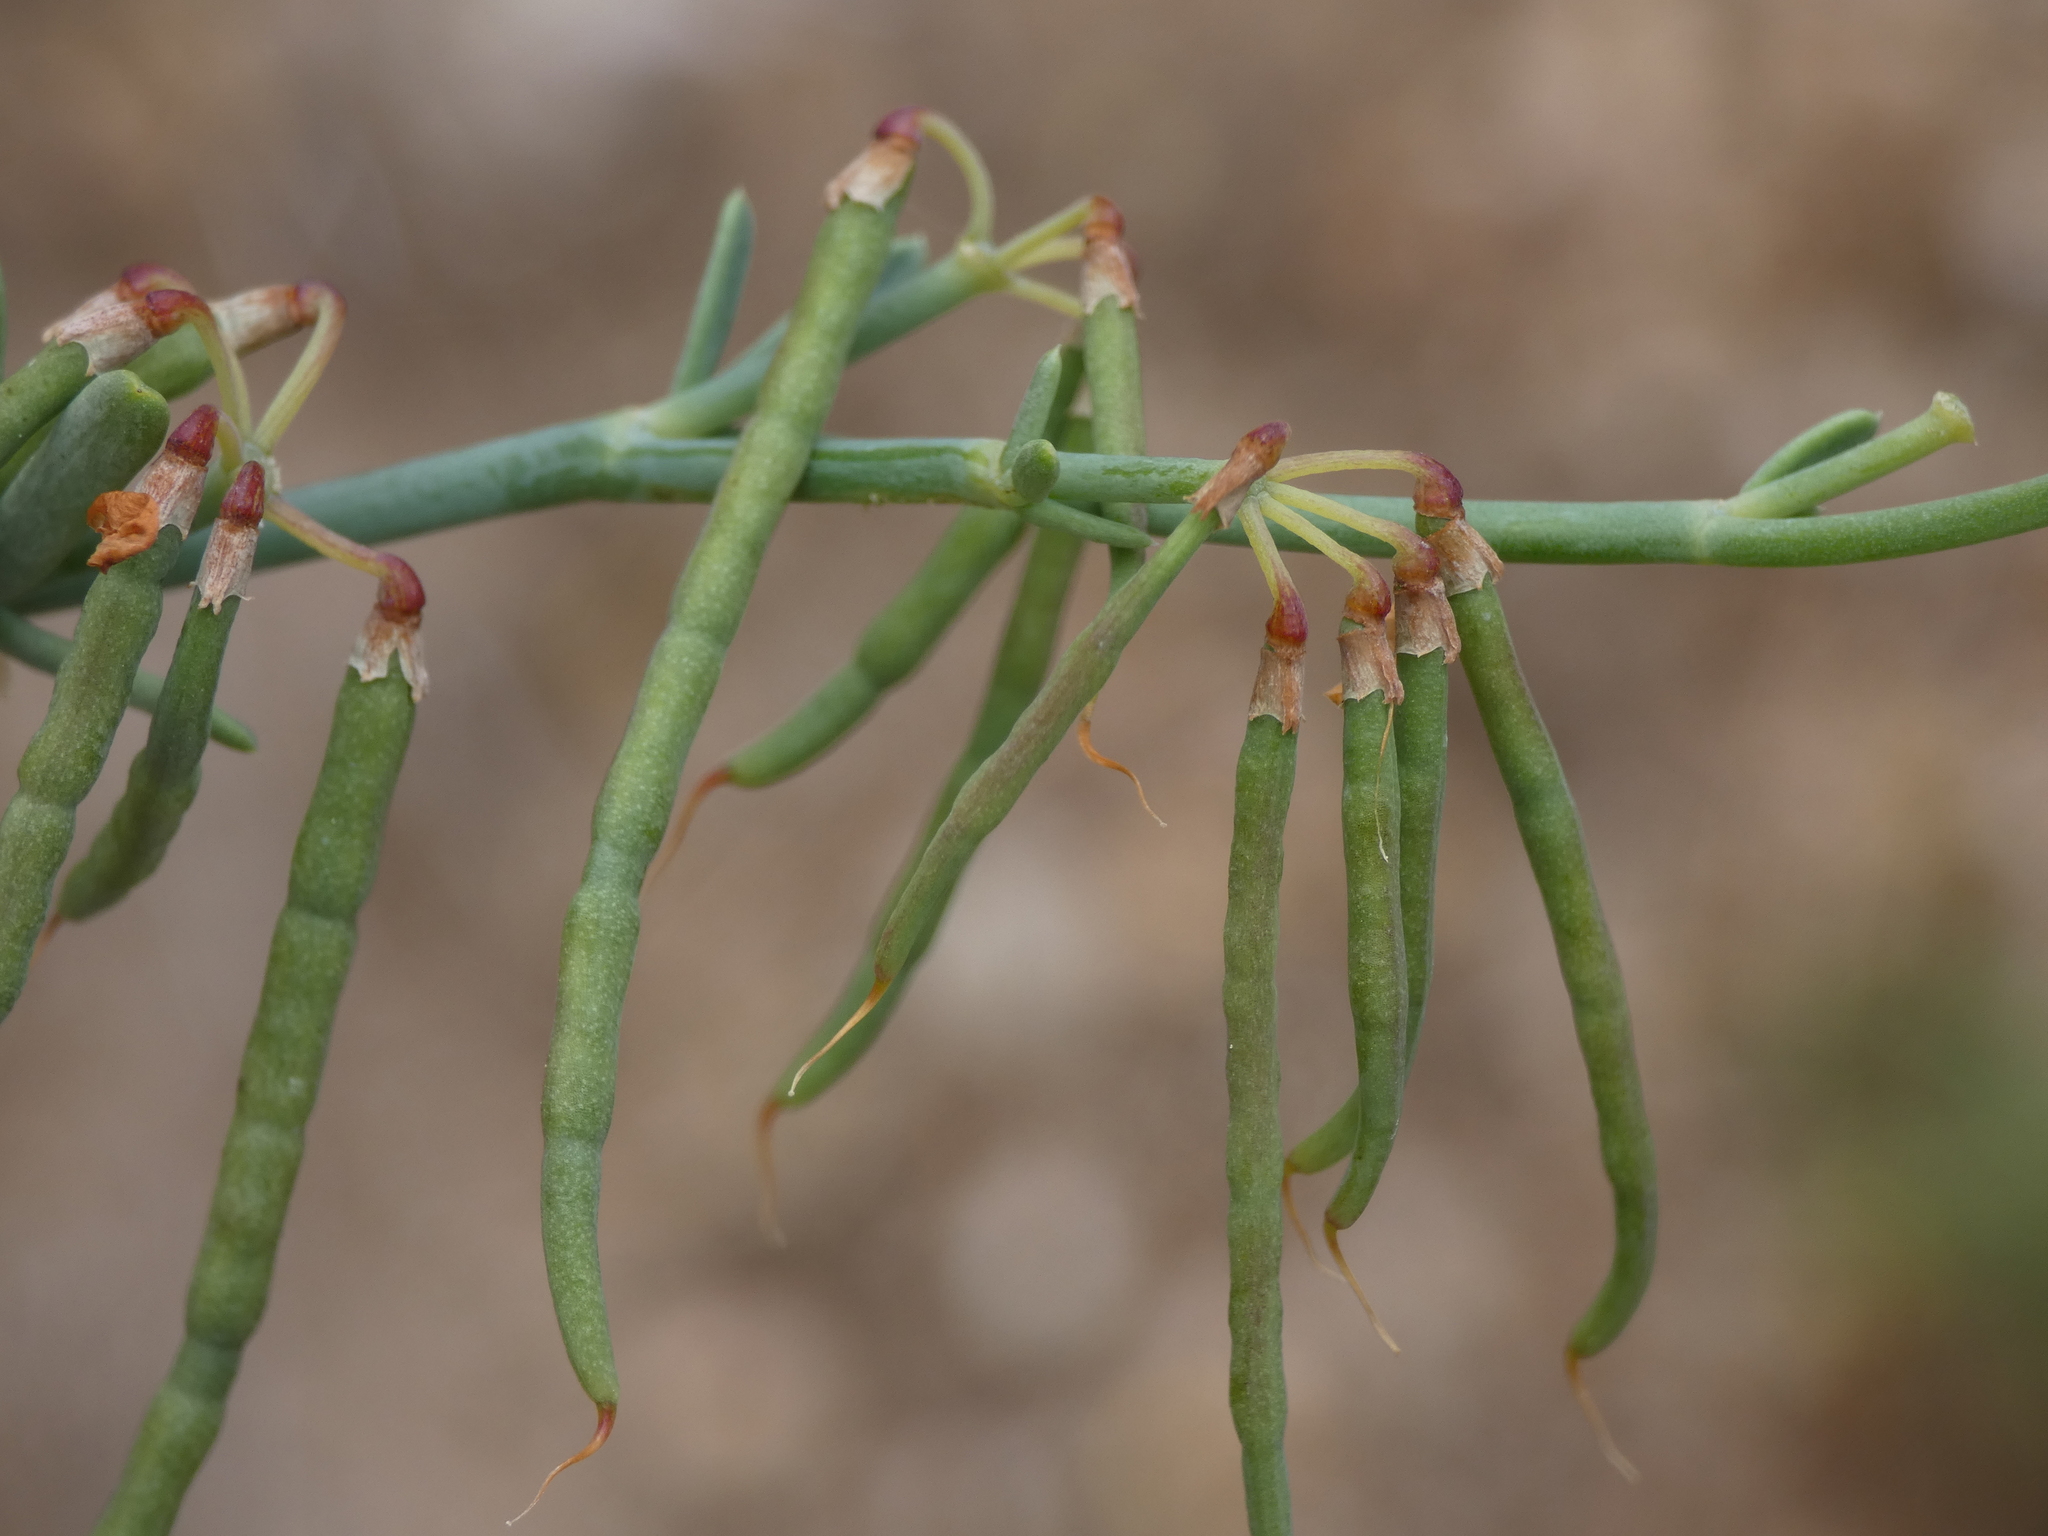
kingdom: Plantae
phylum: Tracheophyta
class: Magnoliopsida
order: Fabales
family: Fabaceae
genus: Coronilla
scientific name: Coronilla juncea
